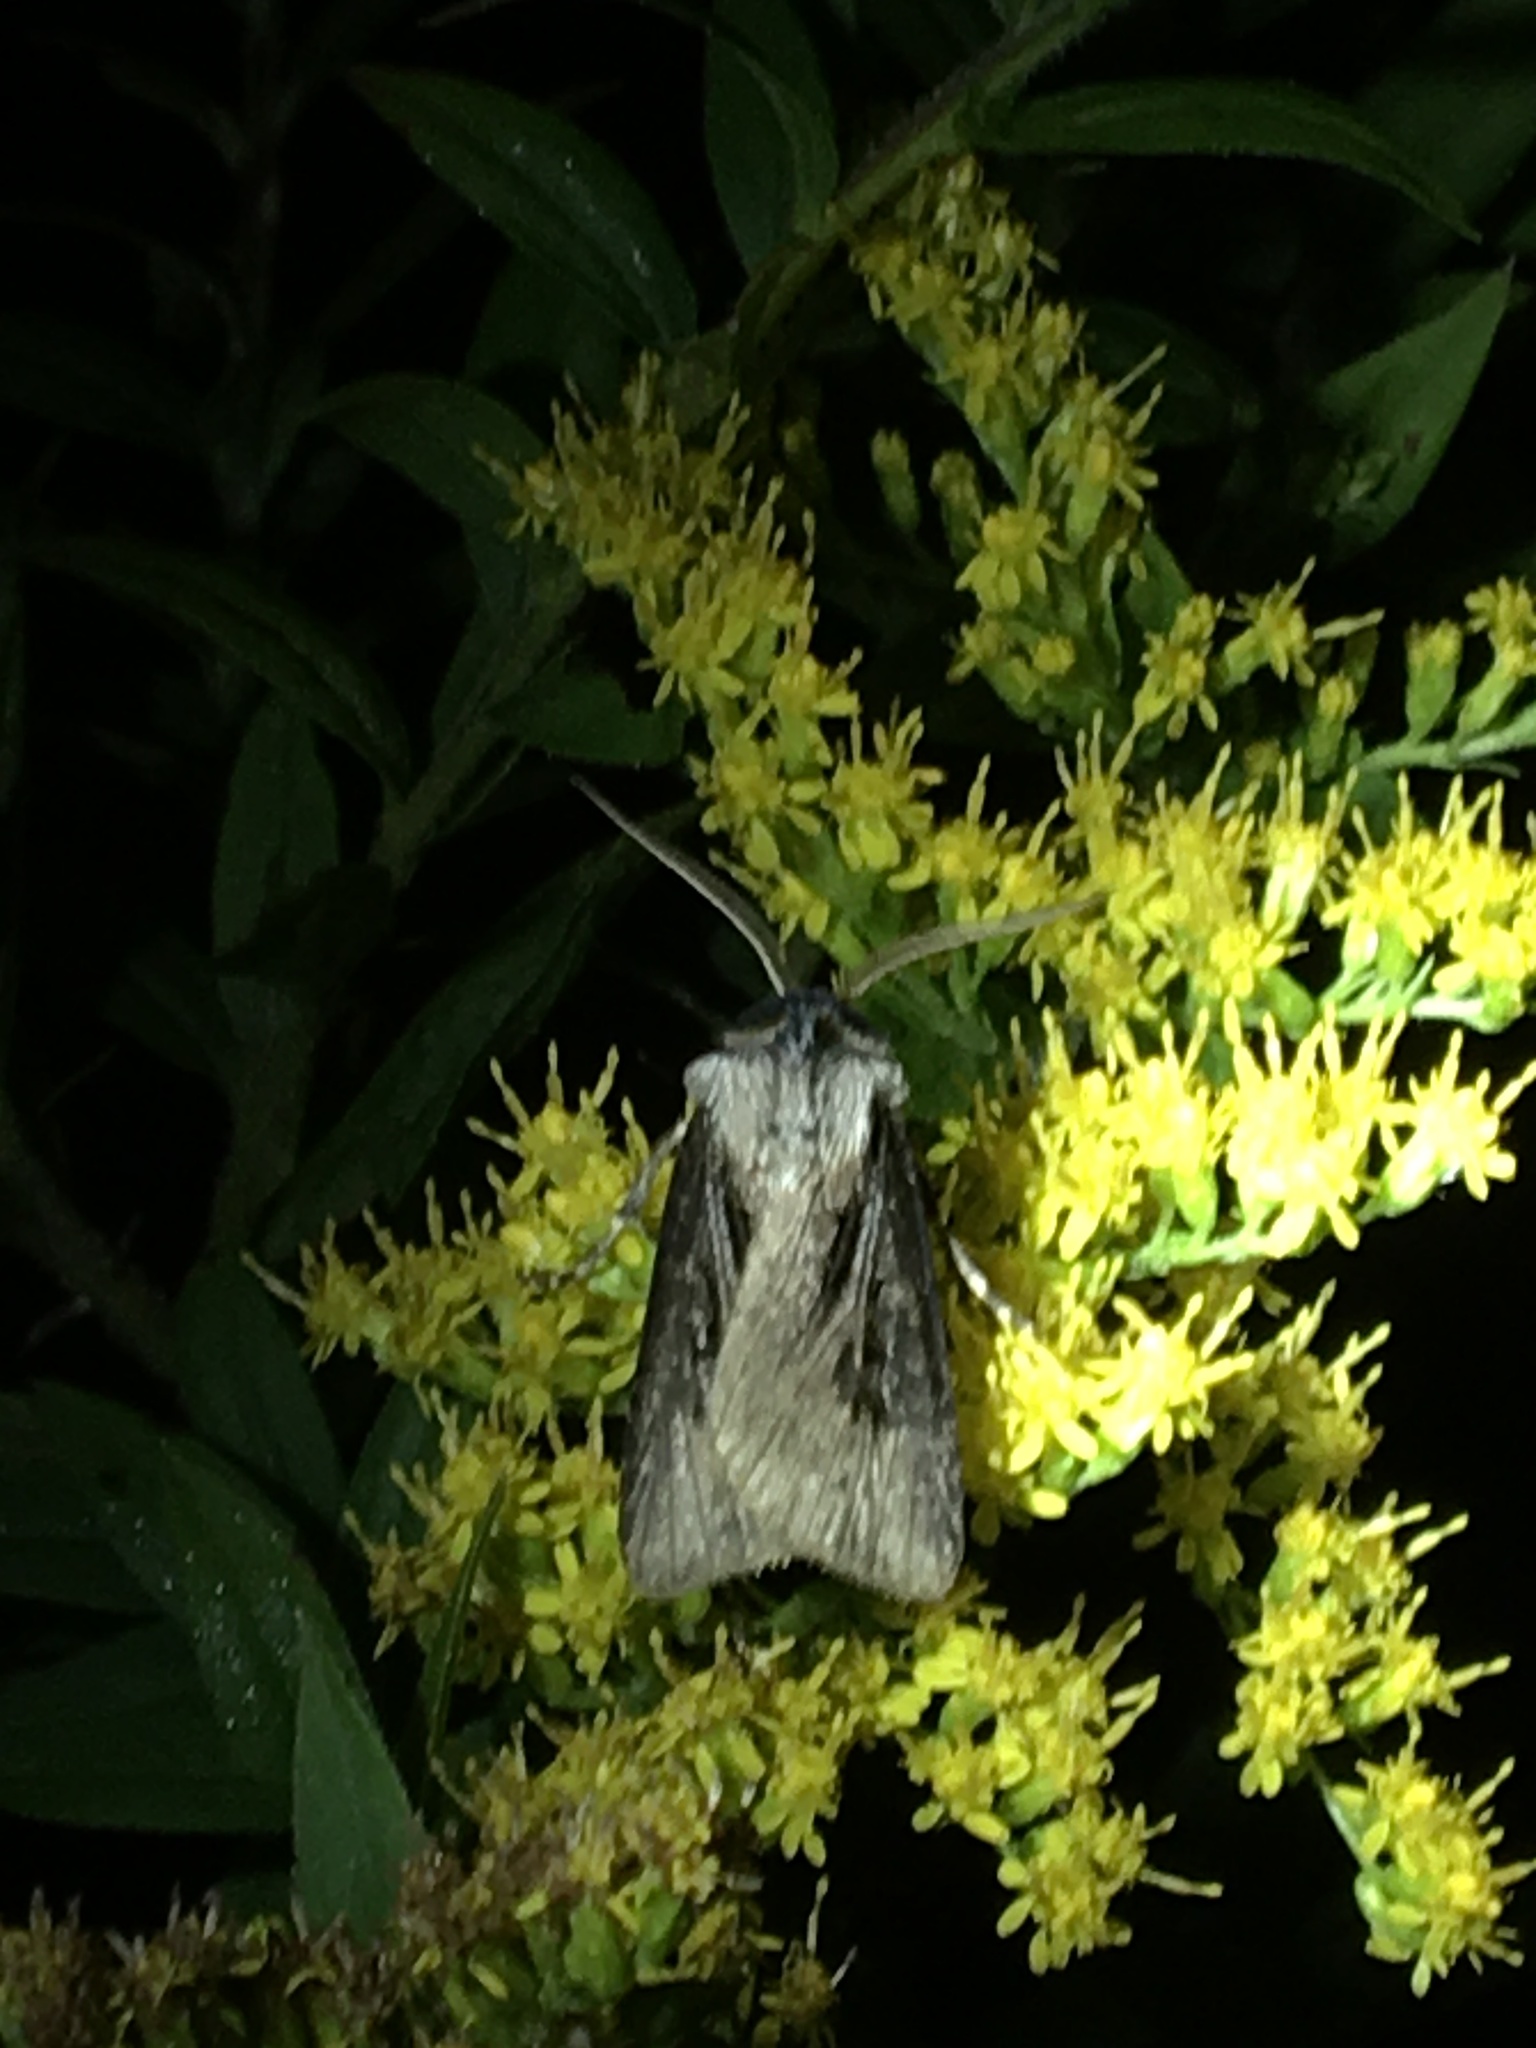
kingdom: Animalia
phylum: Arthropoda
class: Insecta
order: Lepidoptera
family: Noctuidae
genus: Agrotis
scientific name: Agrotis venerabilis
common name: Venerable dart
